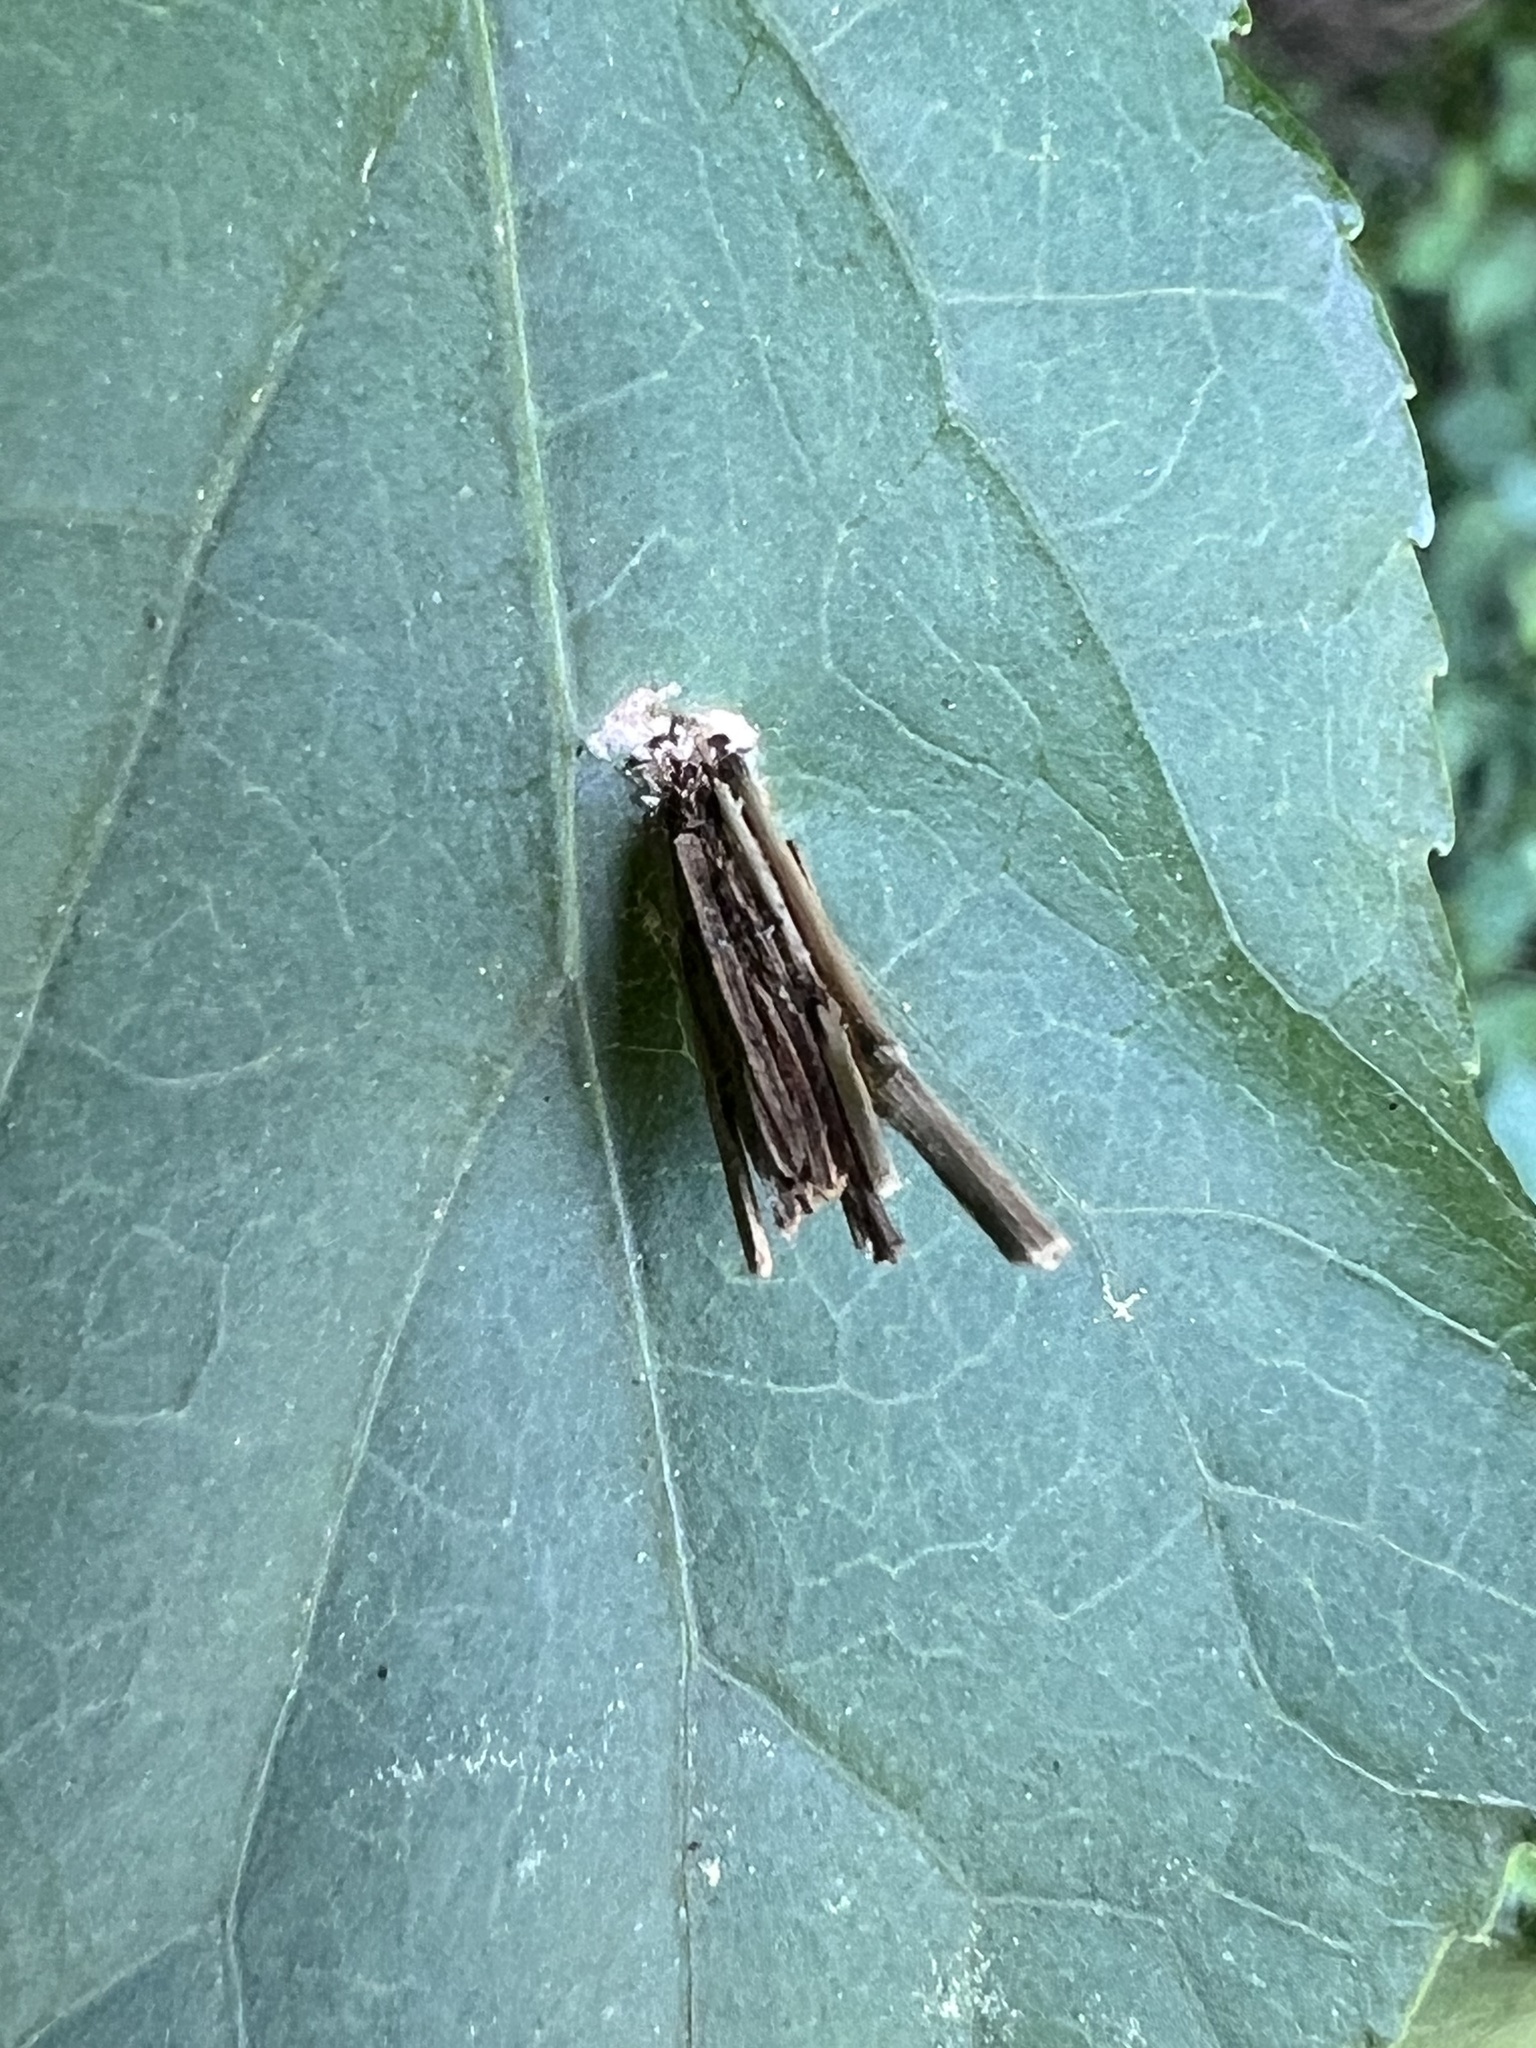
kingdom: Animalia
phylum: Arthropoda
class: Insecta
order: Lepidoptera
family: Psychidae
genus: Psyche
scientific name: Psyche casta
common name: Common sweep
